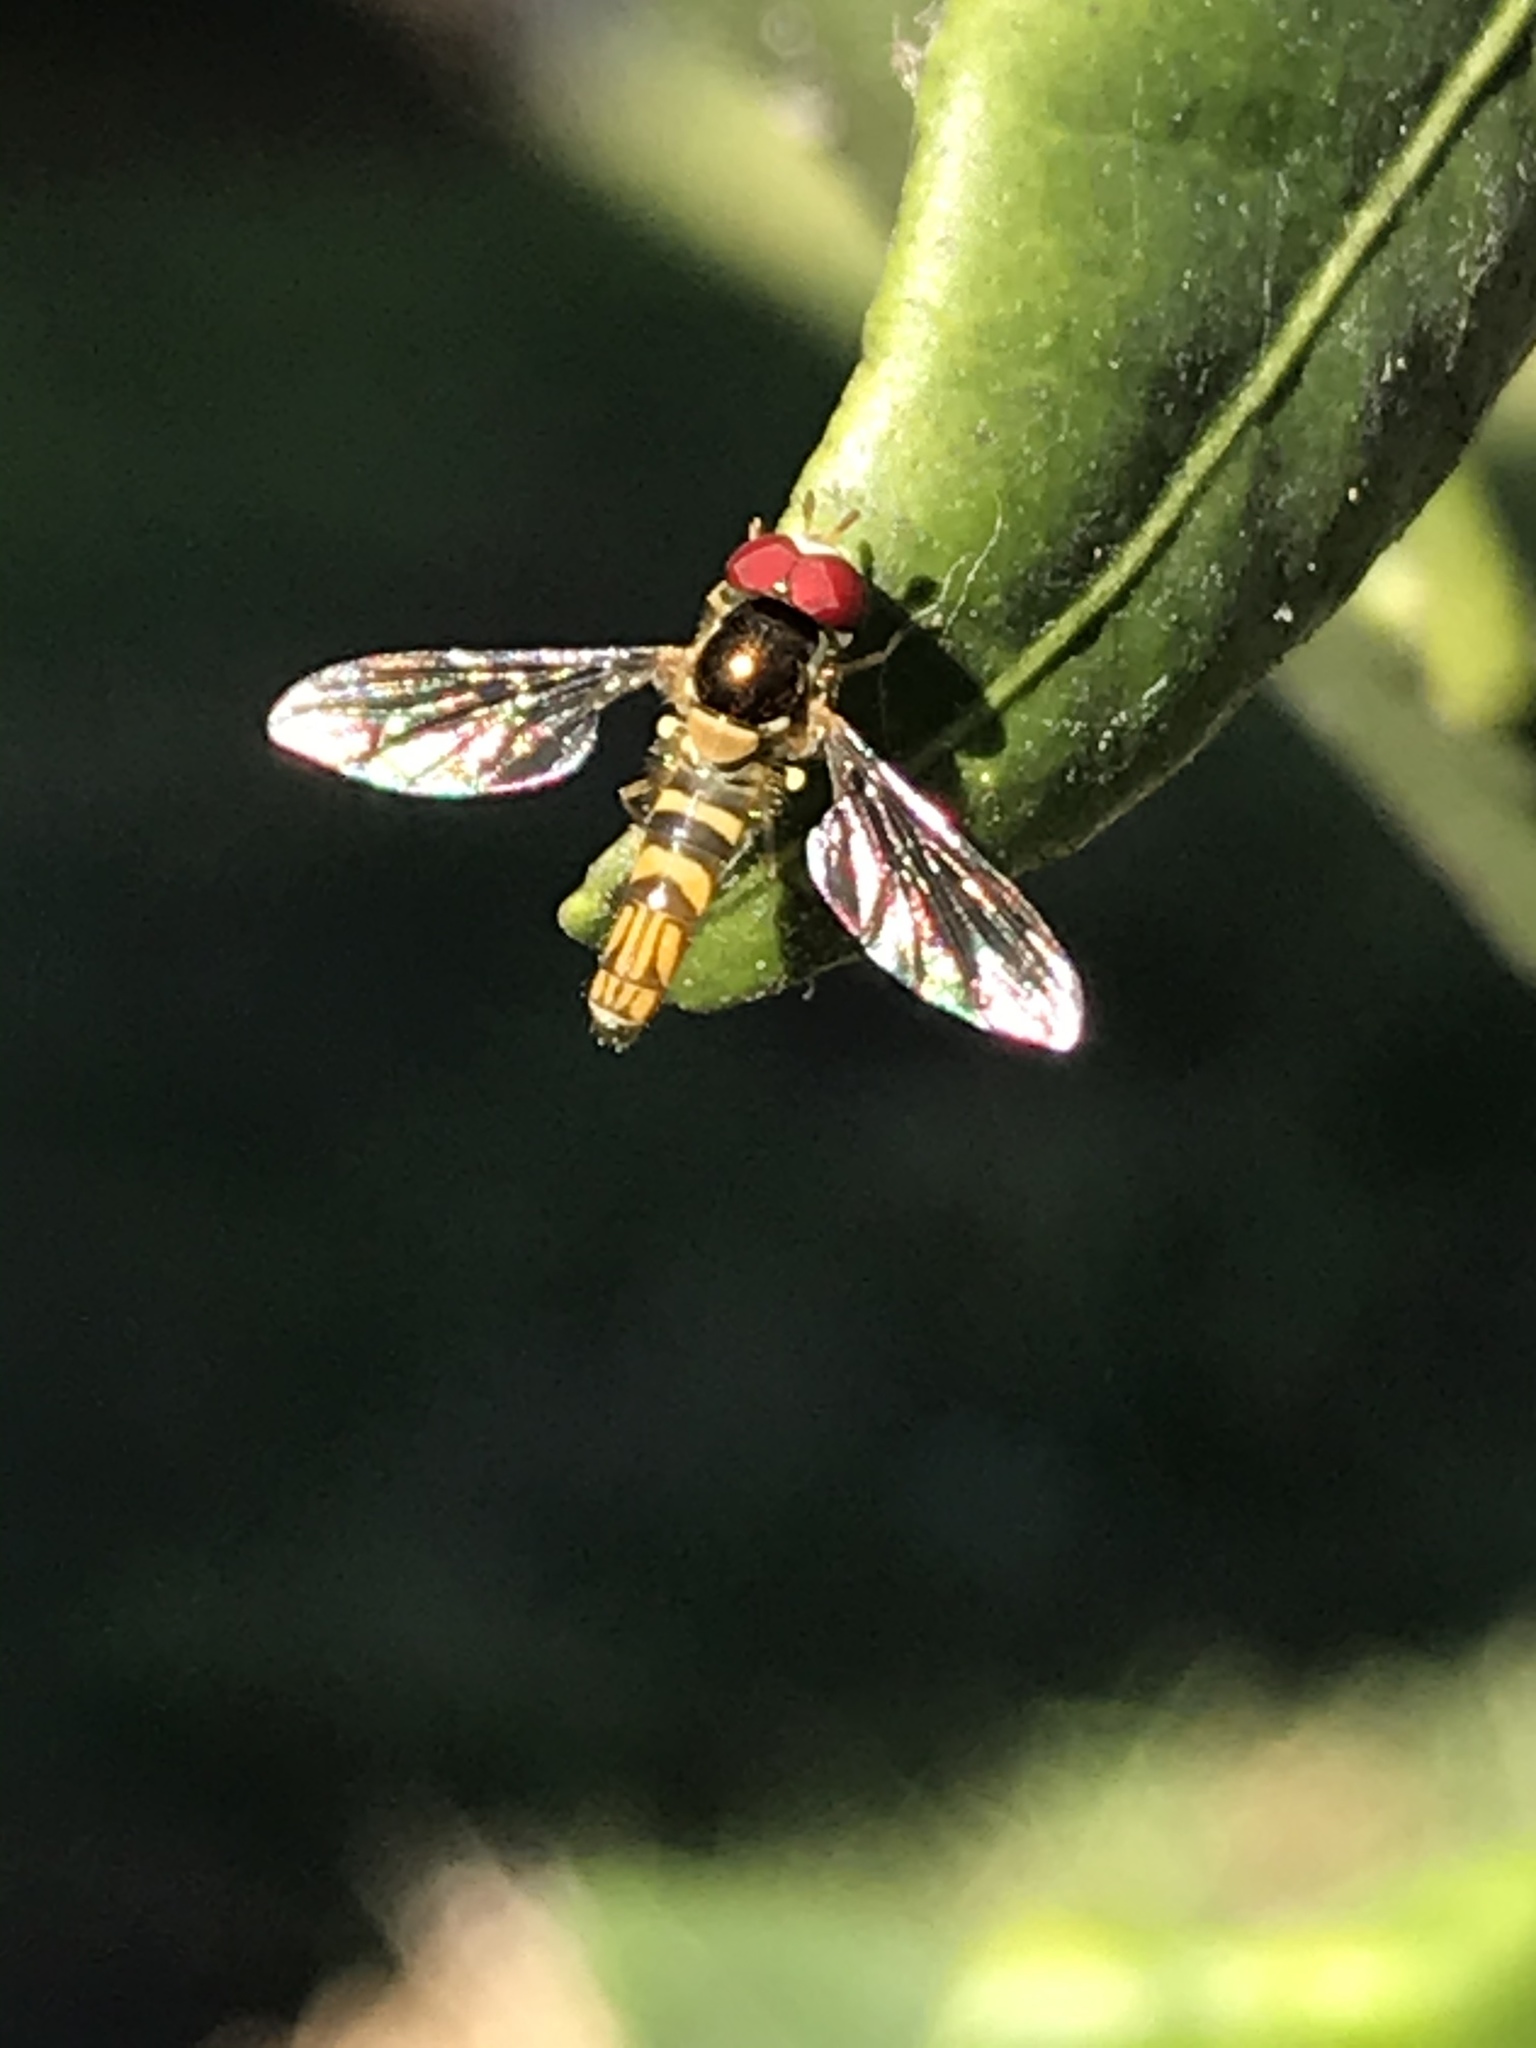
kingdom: Animalia
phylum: Arthropoda
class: Insecta
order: Diptera
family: Syrphidae
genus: Allograpta
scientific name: Allograpta obliqua
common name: Common oblique syrphid
